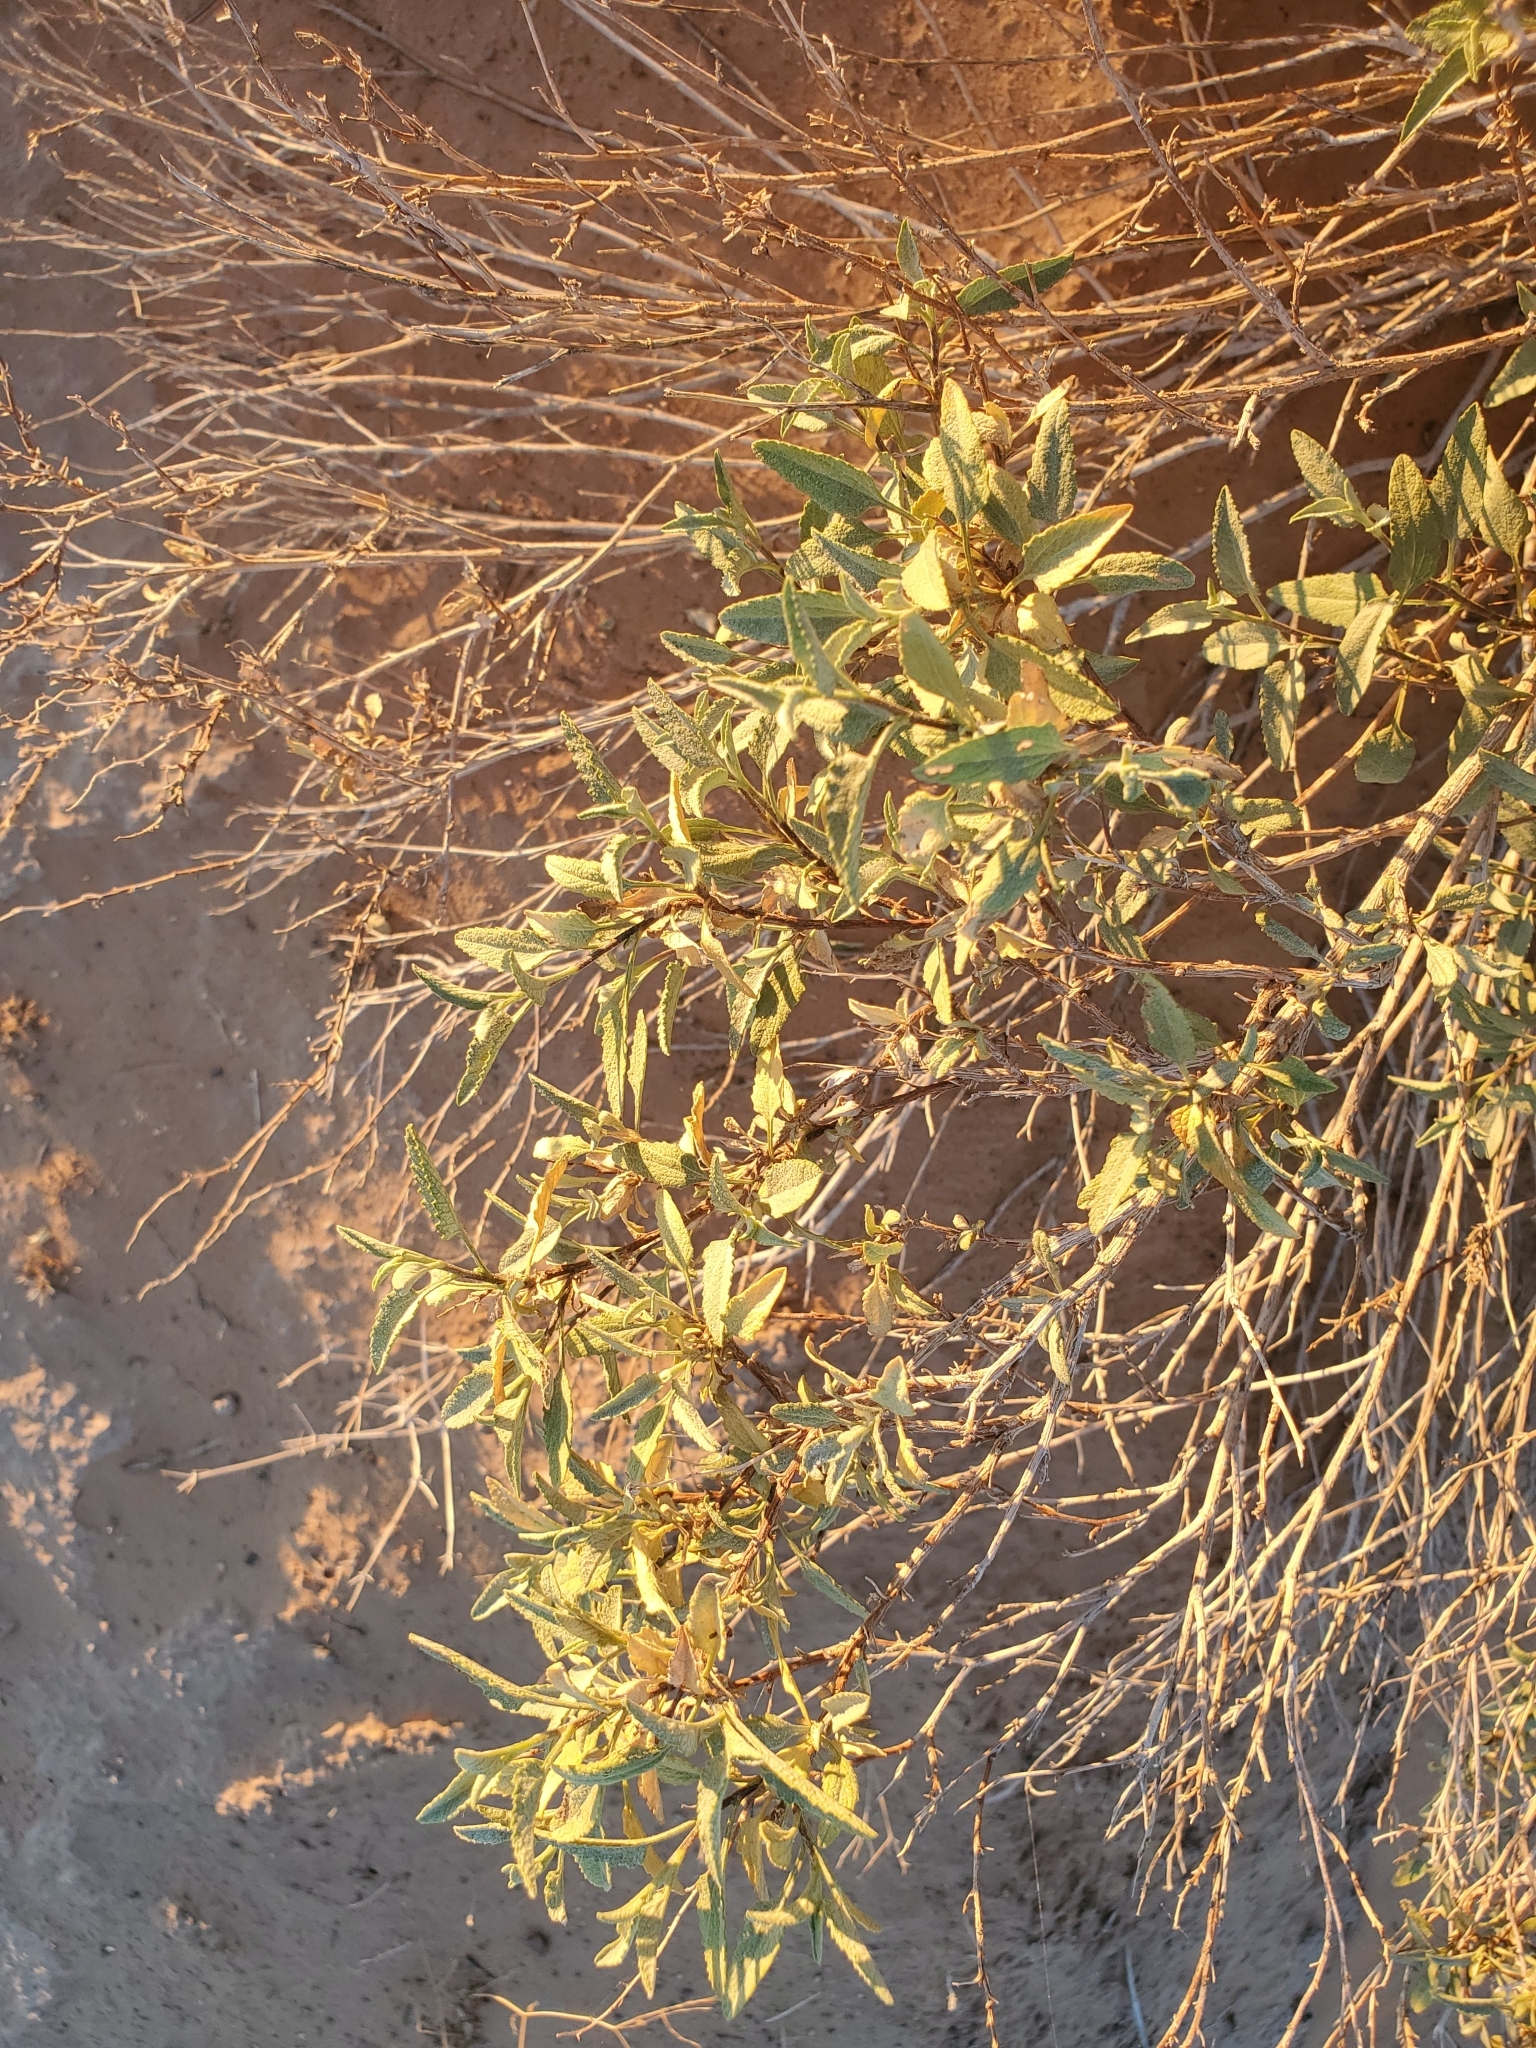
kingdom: Plantae
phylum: Tracheophyta
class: Magnoliopsida
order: Asterales
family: Asteraceae
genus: Ambrosia
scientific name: Ambrosia deltoidea
